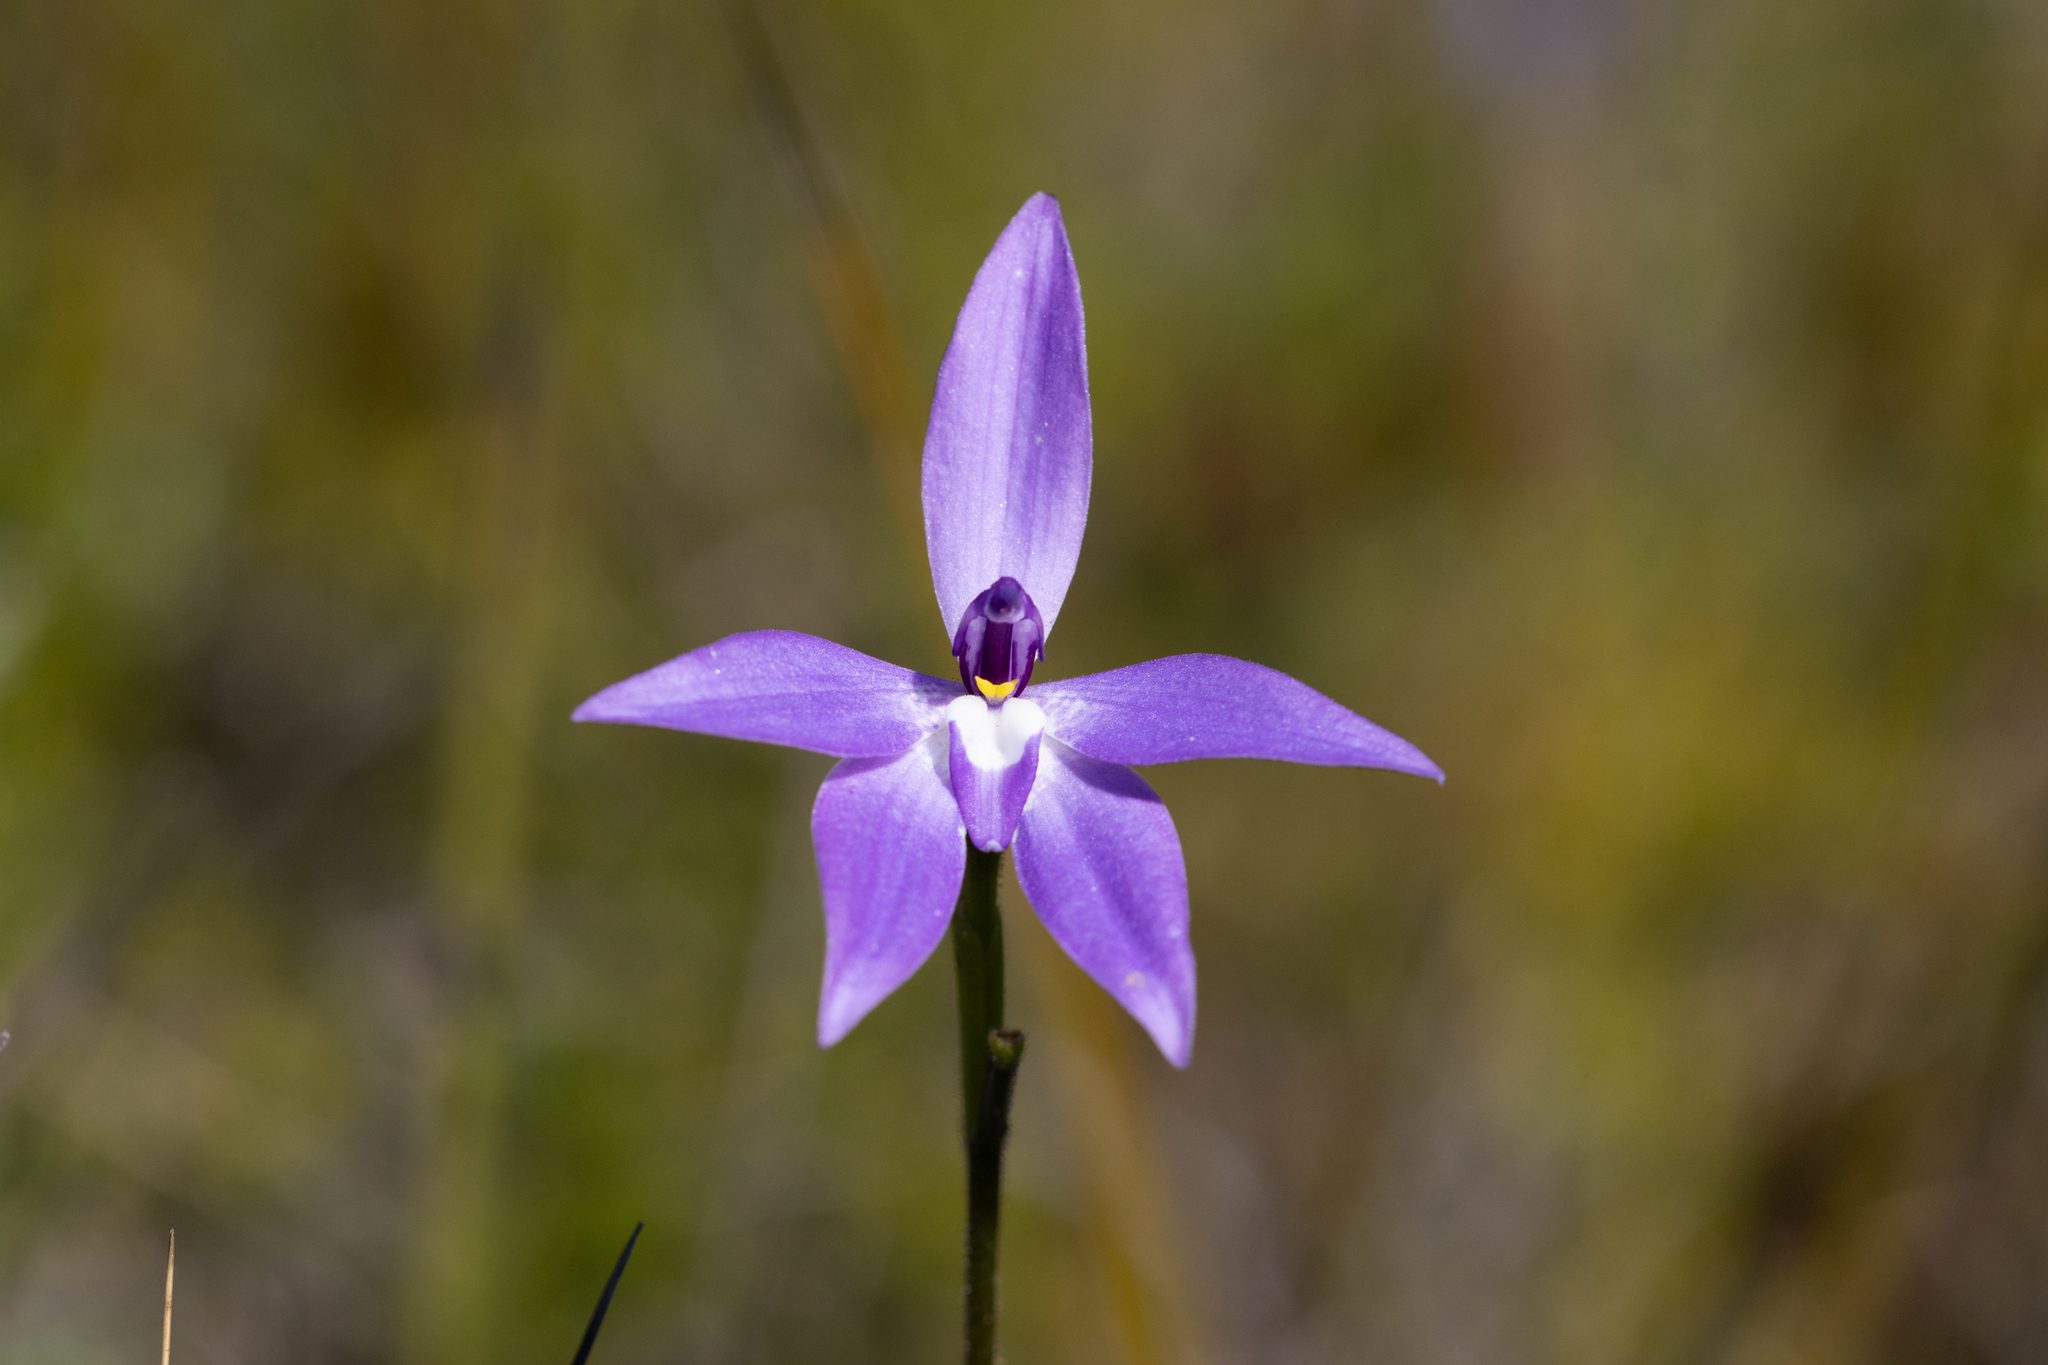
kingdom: Plantae
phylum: Tracheophyta
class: Liliopsida
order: Asparagales
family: Orchidaceae
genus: Caladenia
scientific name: Caladenia major
